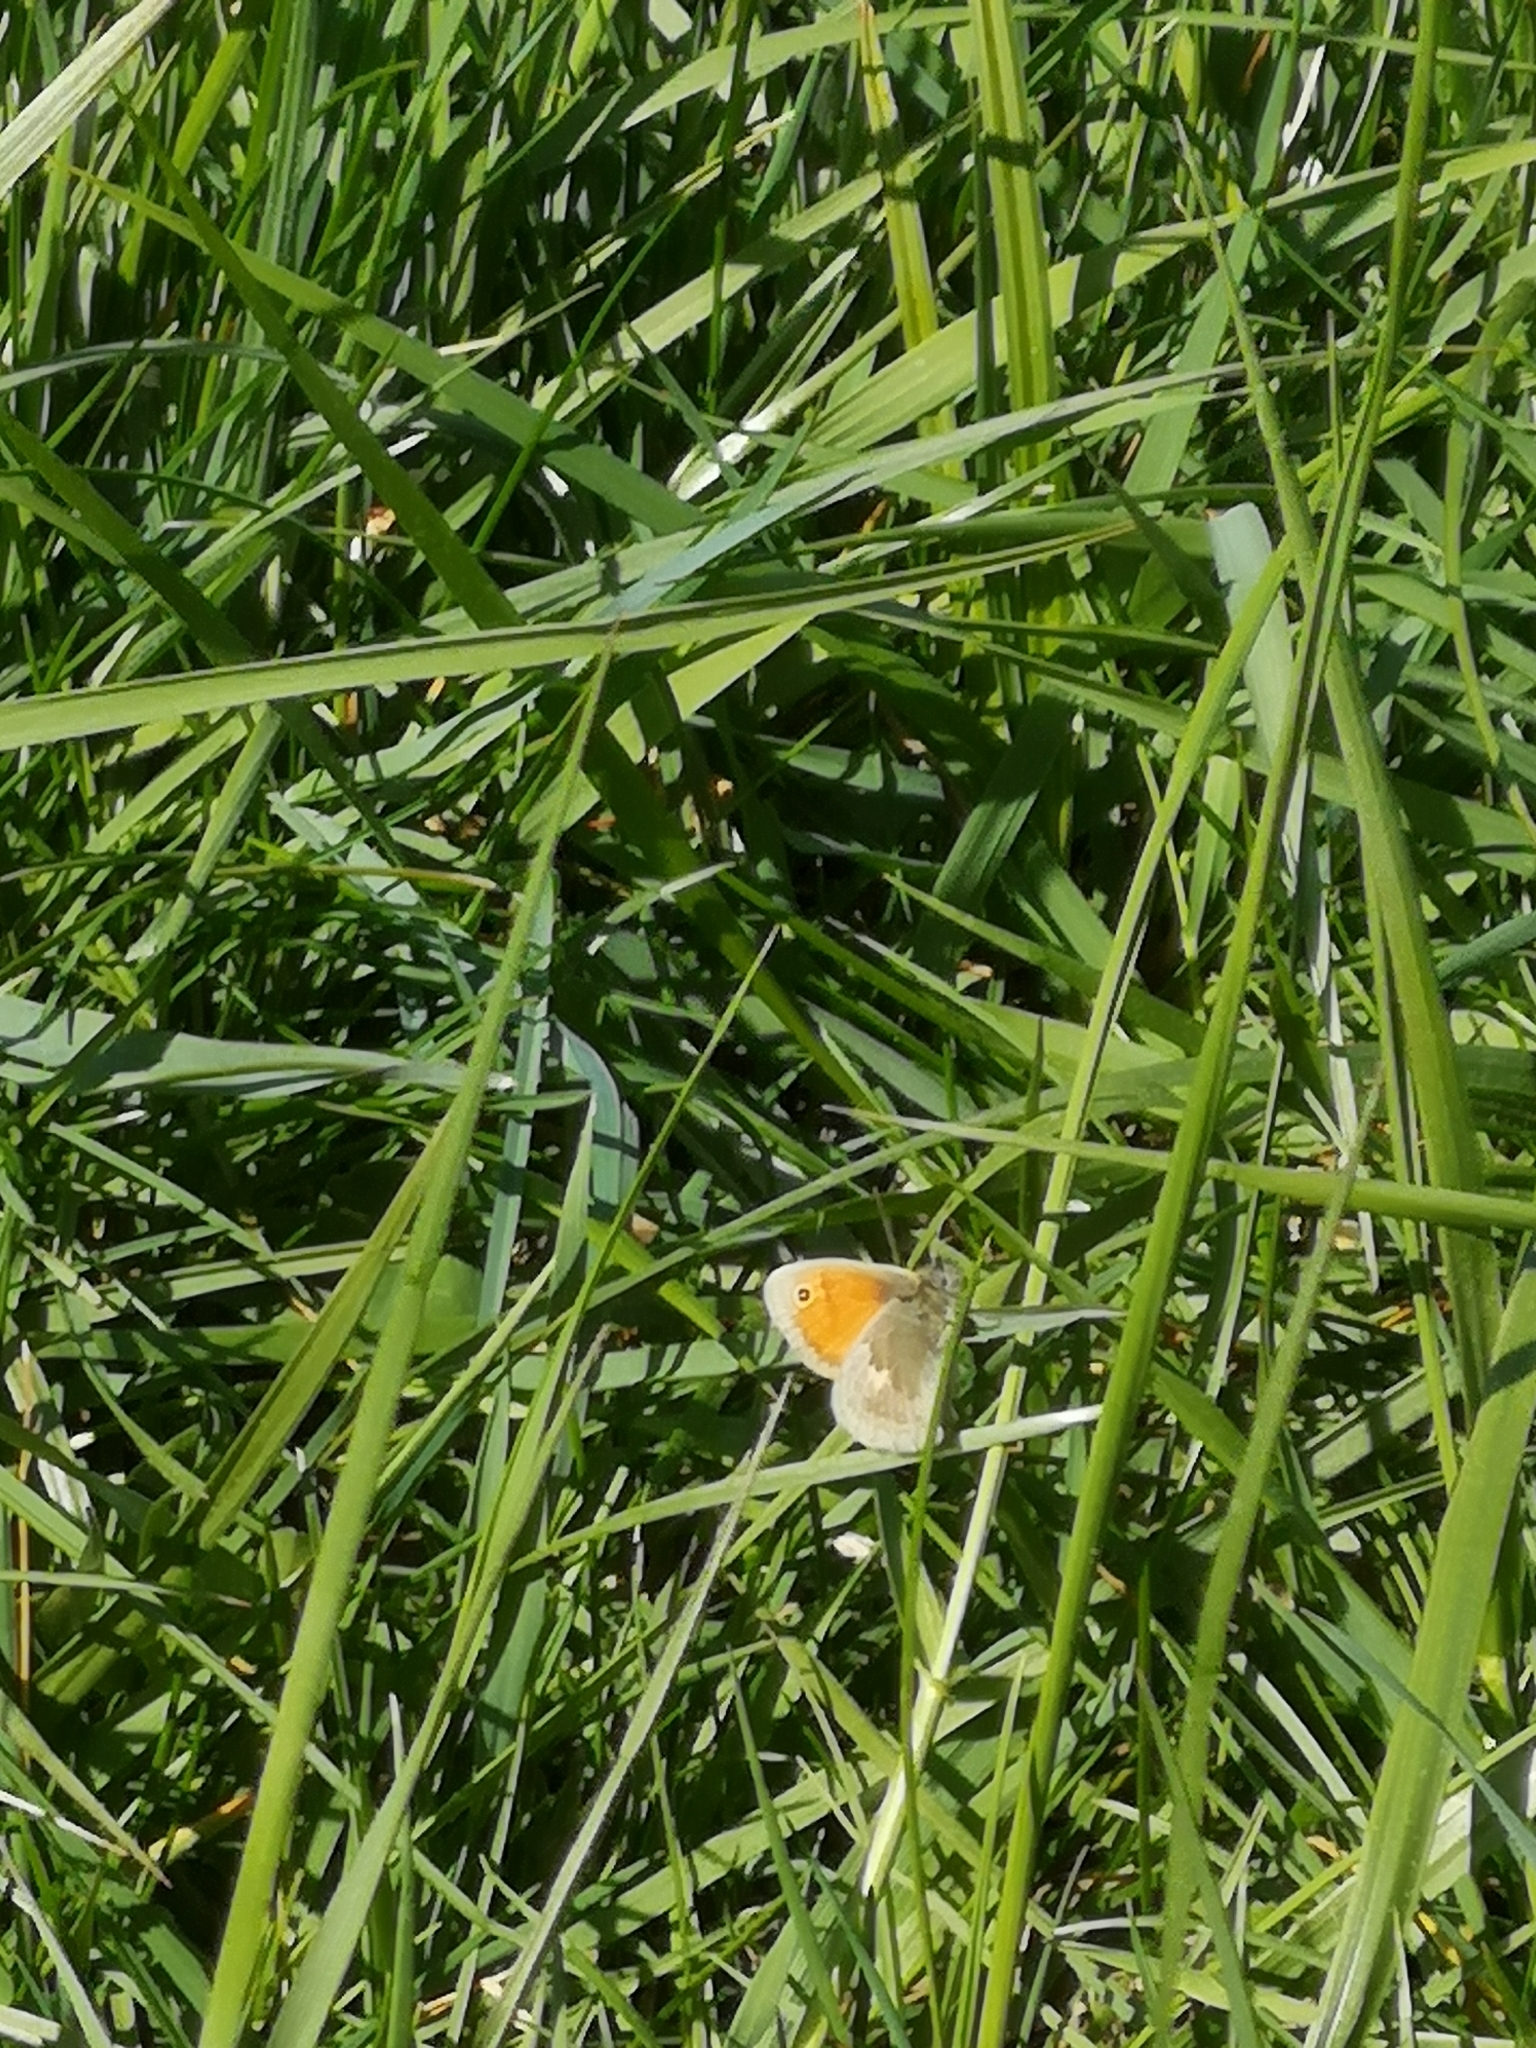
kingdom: Animalia
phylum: Arthropoda
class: Insecta
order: Lepidoptera
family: Nymphalidae
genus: Coenonympha
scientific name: Coenonympha pamphilus
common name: Small heath
